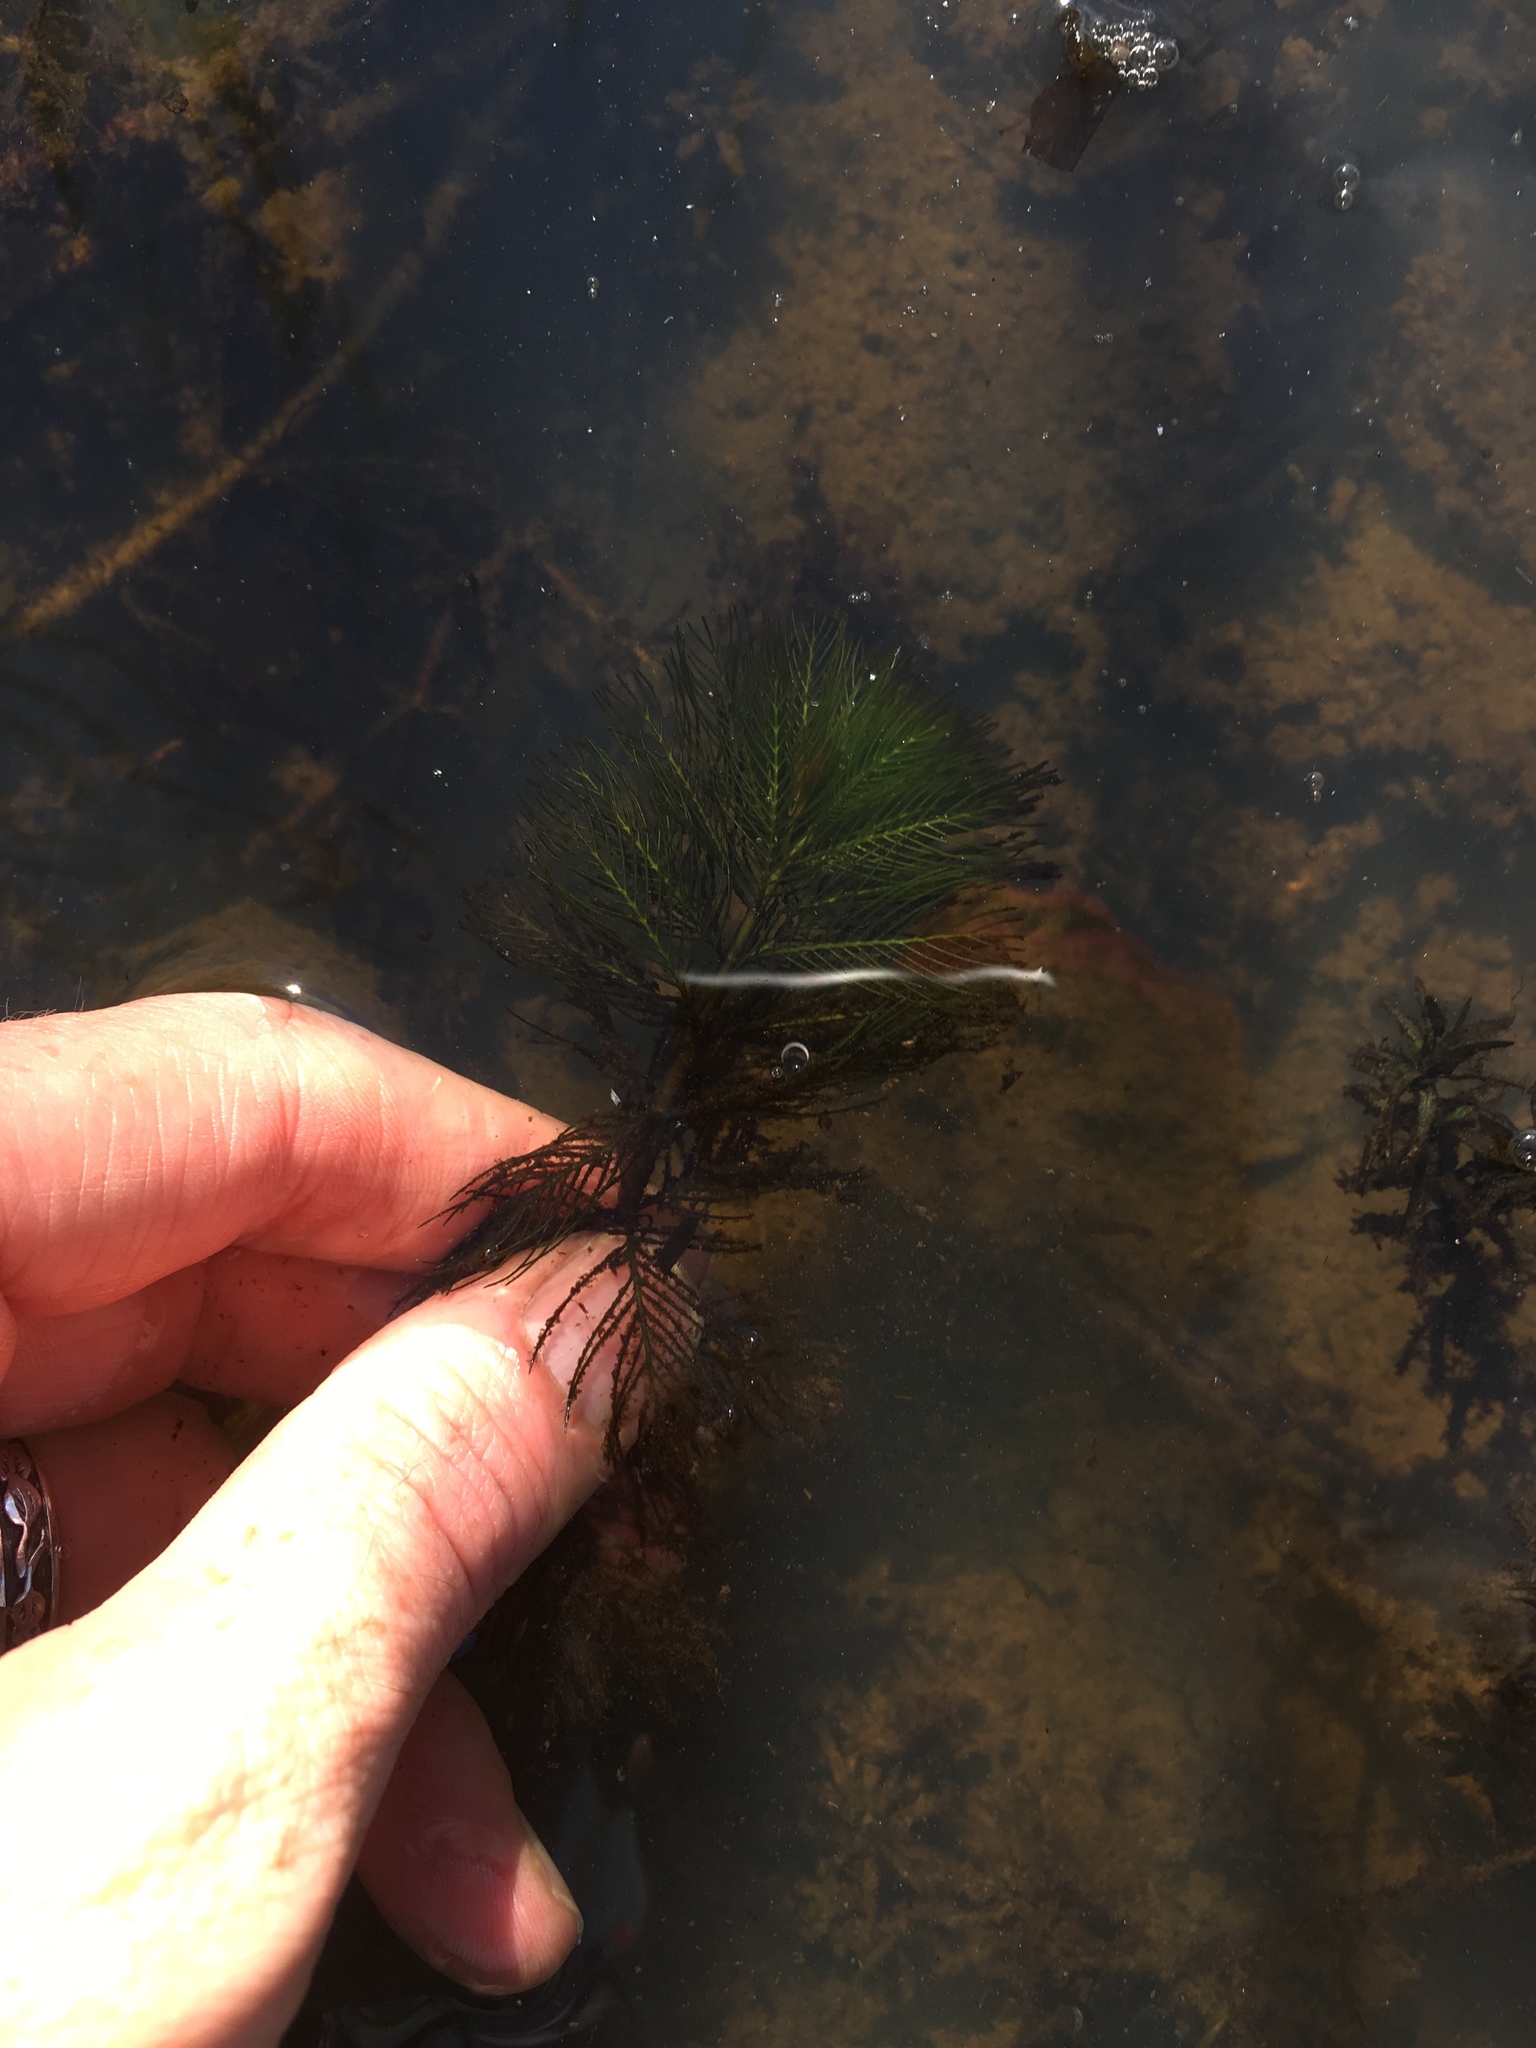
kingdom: Plantae
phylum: Tracheophyta
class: Magnoliopsida
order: Saxifragales
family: Haloragaceae
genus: Myriophyllum
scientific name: Myriophyllum spicatum
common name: Spiked water-milfoil
